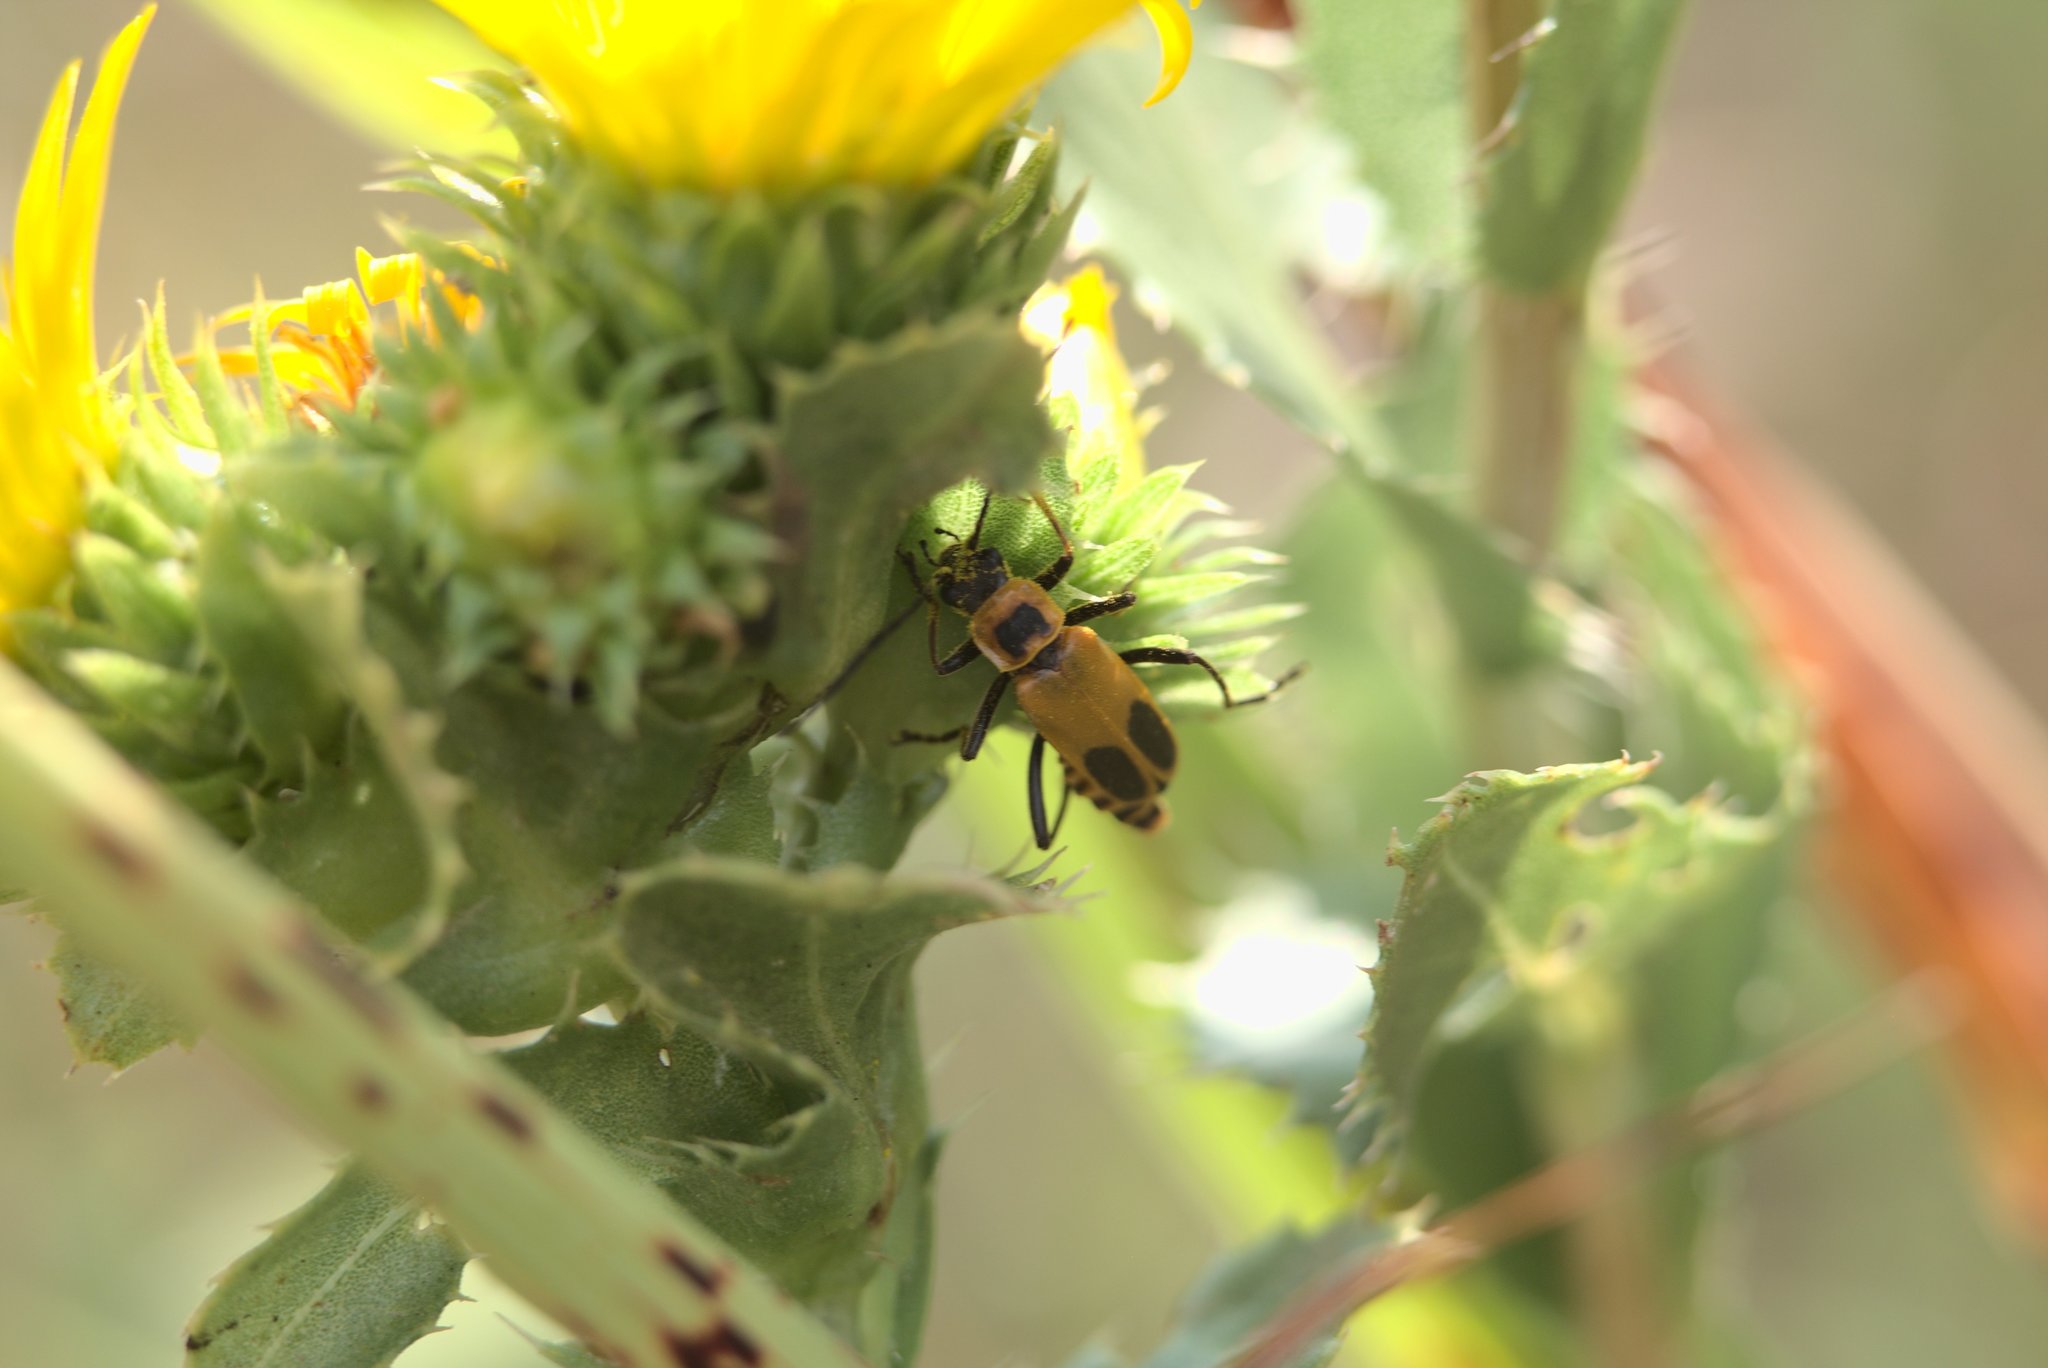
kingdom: Animalia
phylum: Arthropoda
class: Insecta
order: Coleoptera
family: Cantharidae
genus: Chauliognathus
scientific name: Chauliognathus pensylvanicus
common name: Goldenrod soldier beetle
